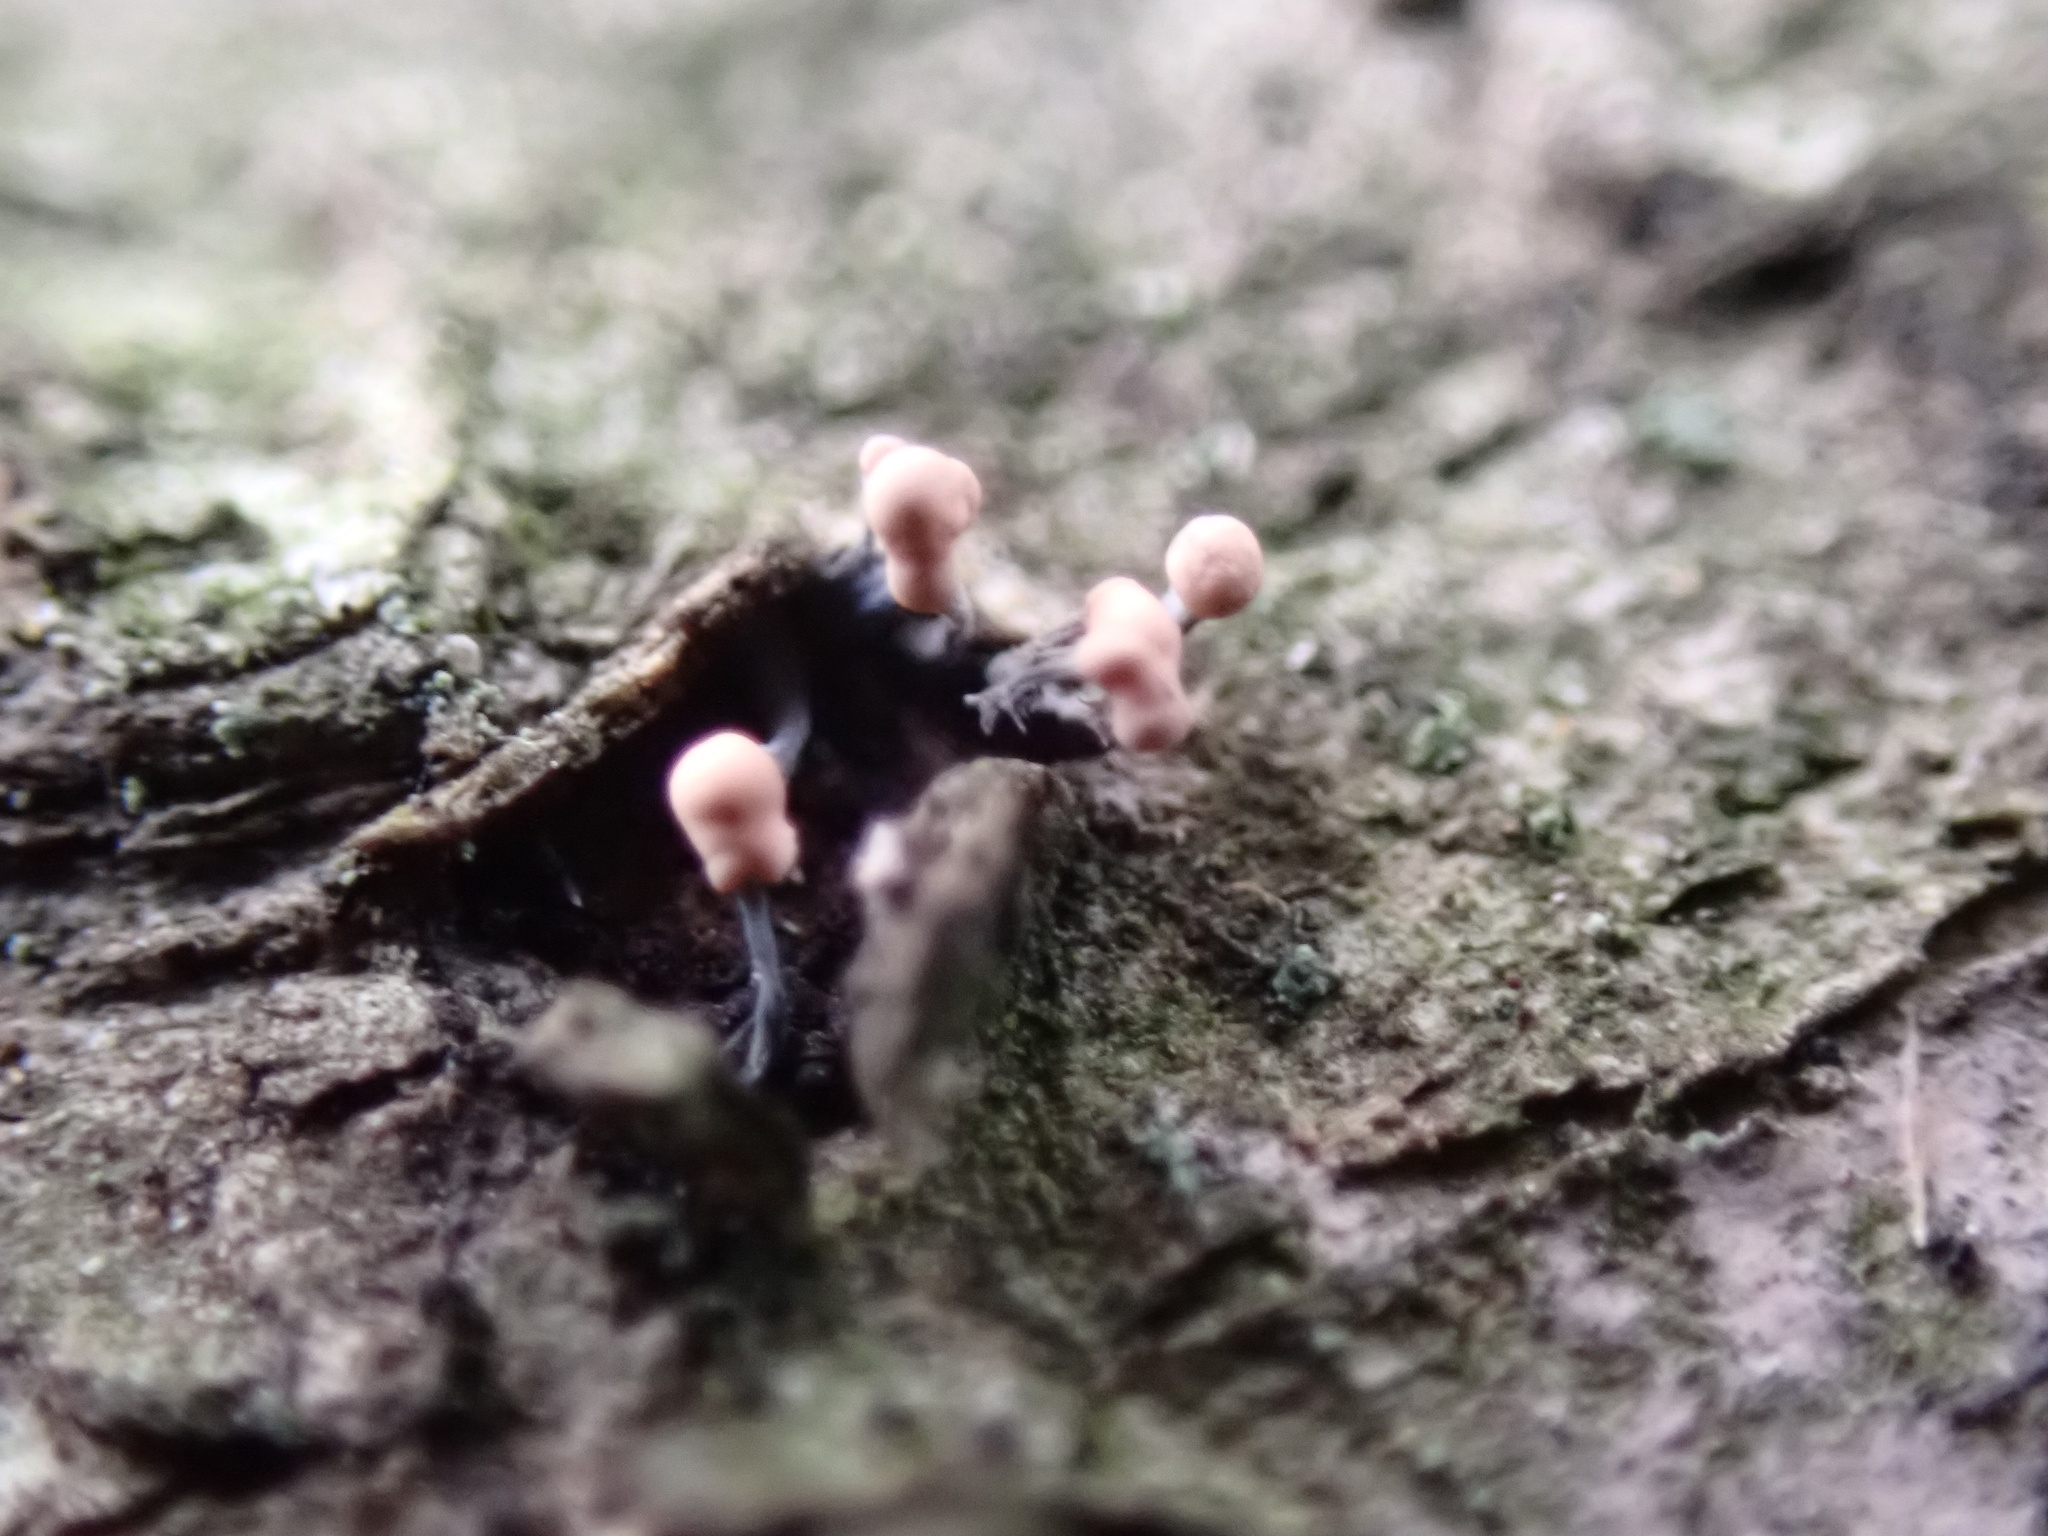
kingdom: Fungi
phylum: Ascomycota
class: Sordariomycetes
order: Hypocreales
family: Nectriaceae
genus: Nectria
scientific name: Nectria gracilipes
